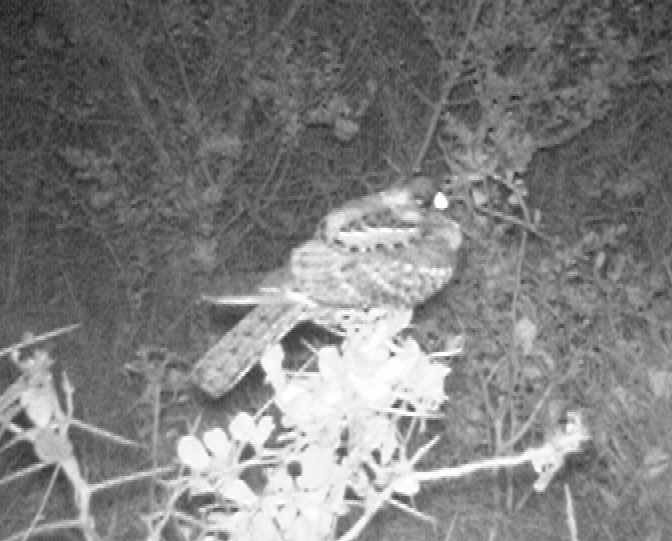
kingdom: Animalia
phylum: Chordata
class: Aves
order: Caprimulgiformes
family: Caprimulgidae
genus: Caprimulgus
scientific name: Caprimulgus pectoralis
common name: Fiery-necked nightjar
